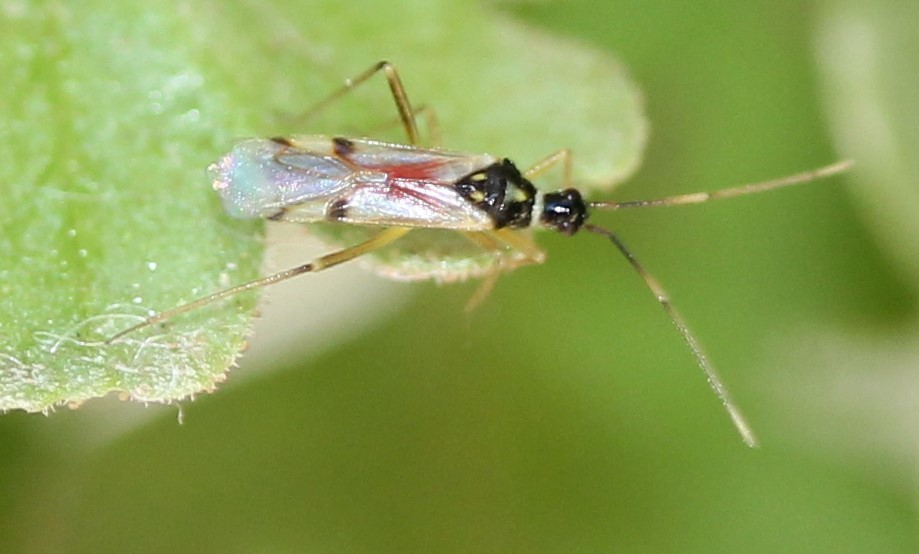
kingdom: Animalia
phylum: Arthropoda
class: Insecta
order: Hemiptera
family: Miridae
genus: Tupiocoris
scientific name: Tupiocoris agilis
